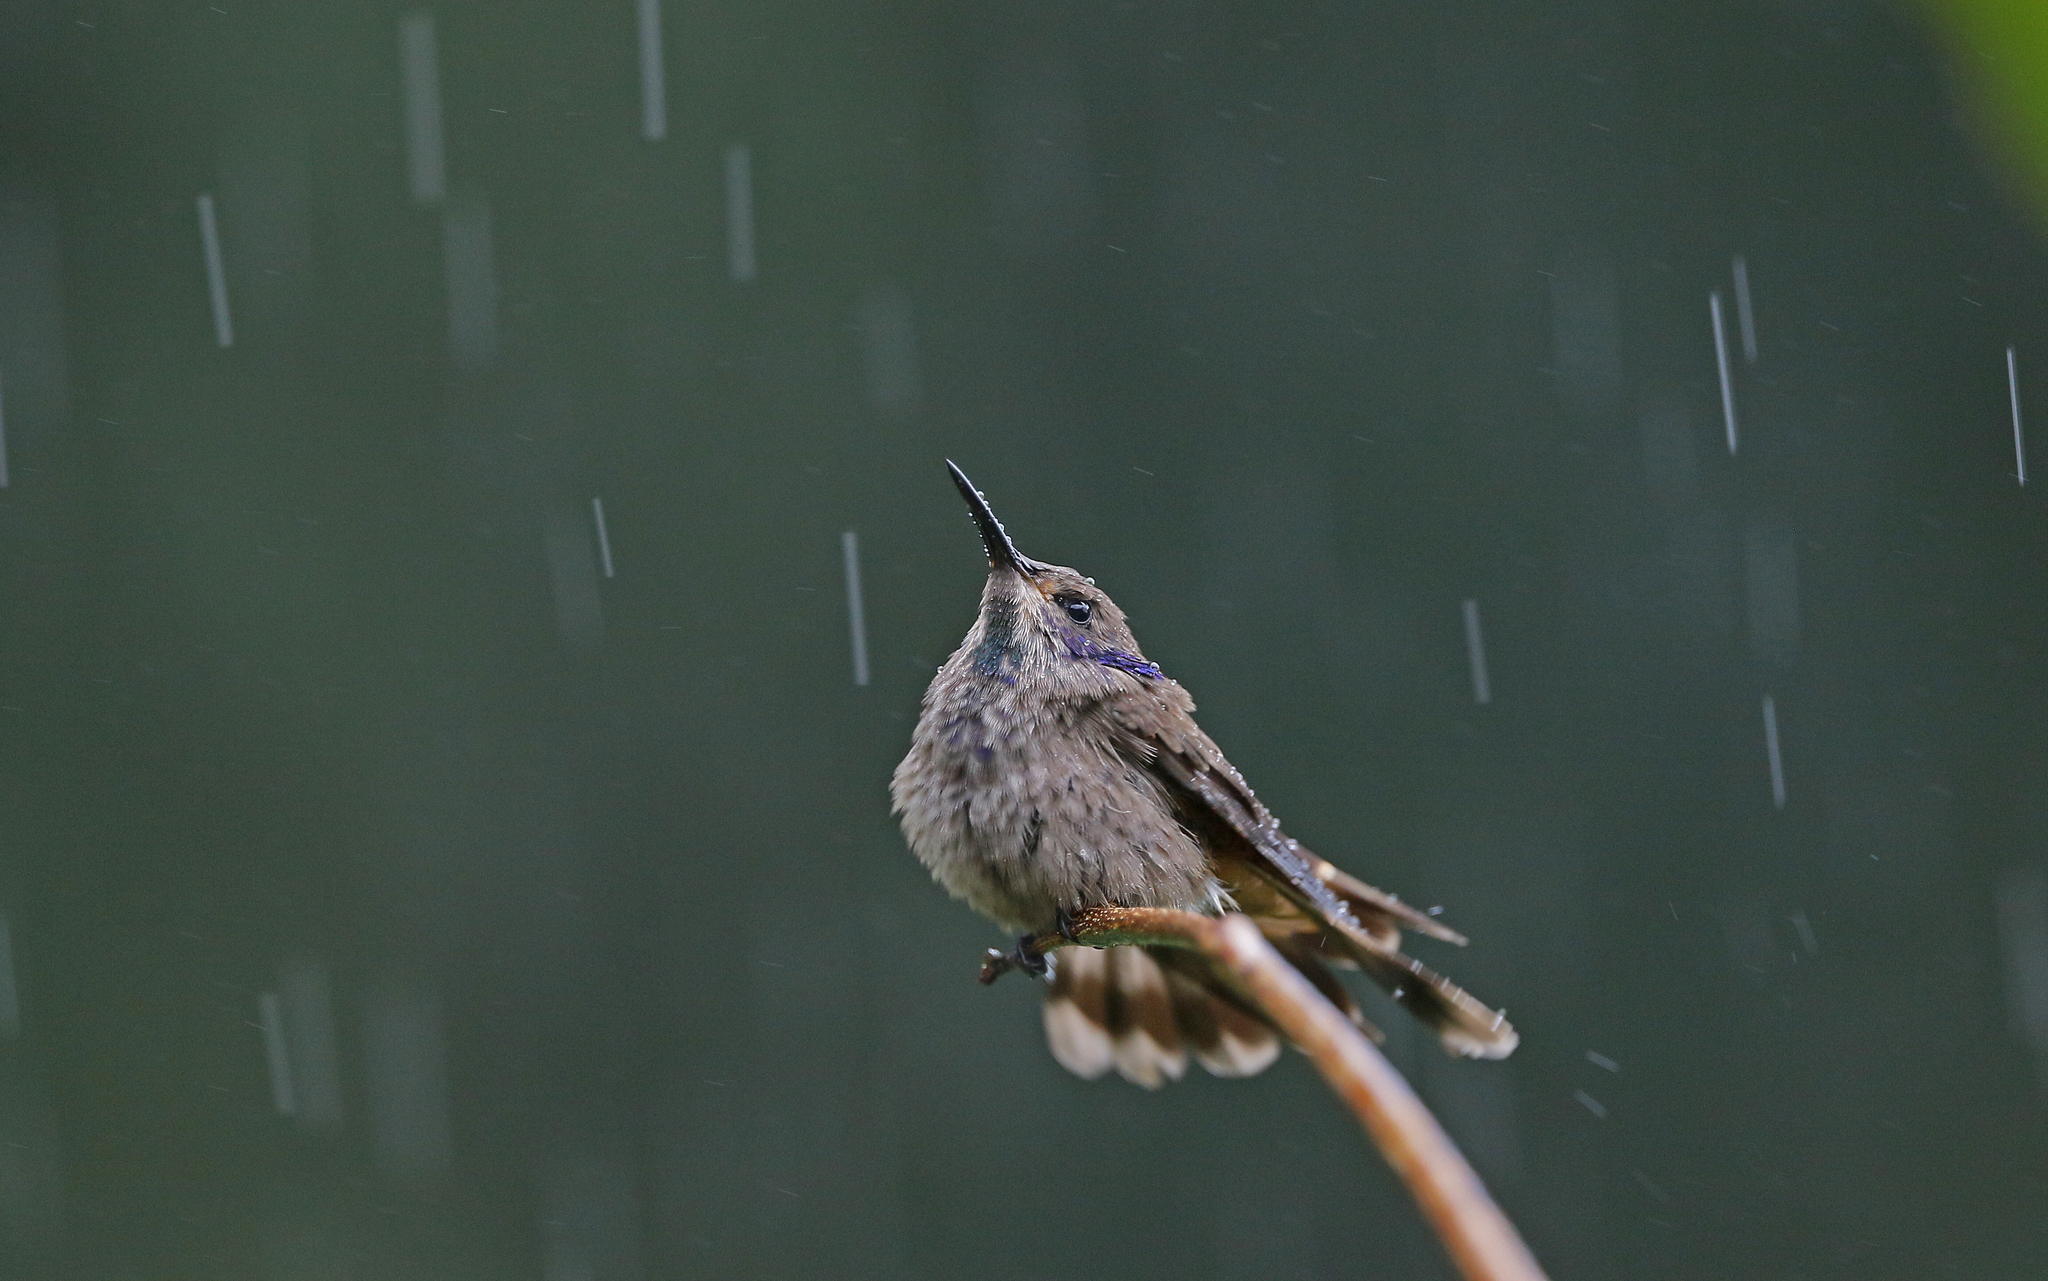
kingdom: Animalia
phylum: Chordata
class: Aves
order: Apodiformes
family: Trochilidae
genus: Colibri
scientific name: Colibri delphinae
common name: Brown violetear
